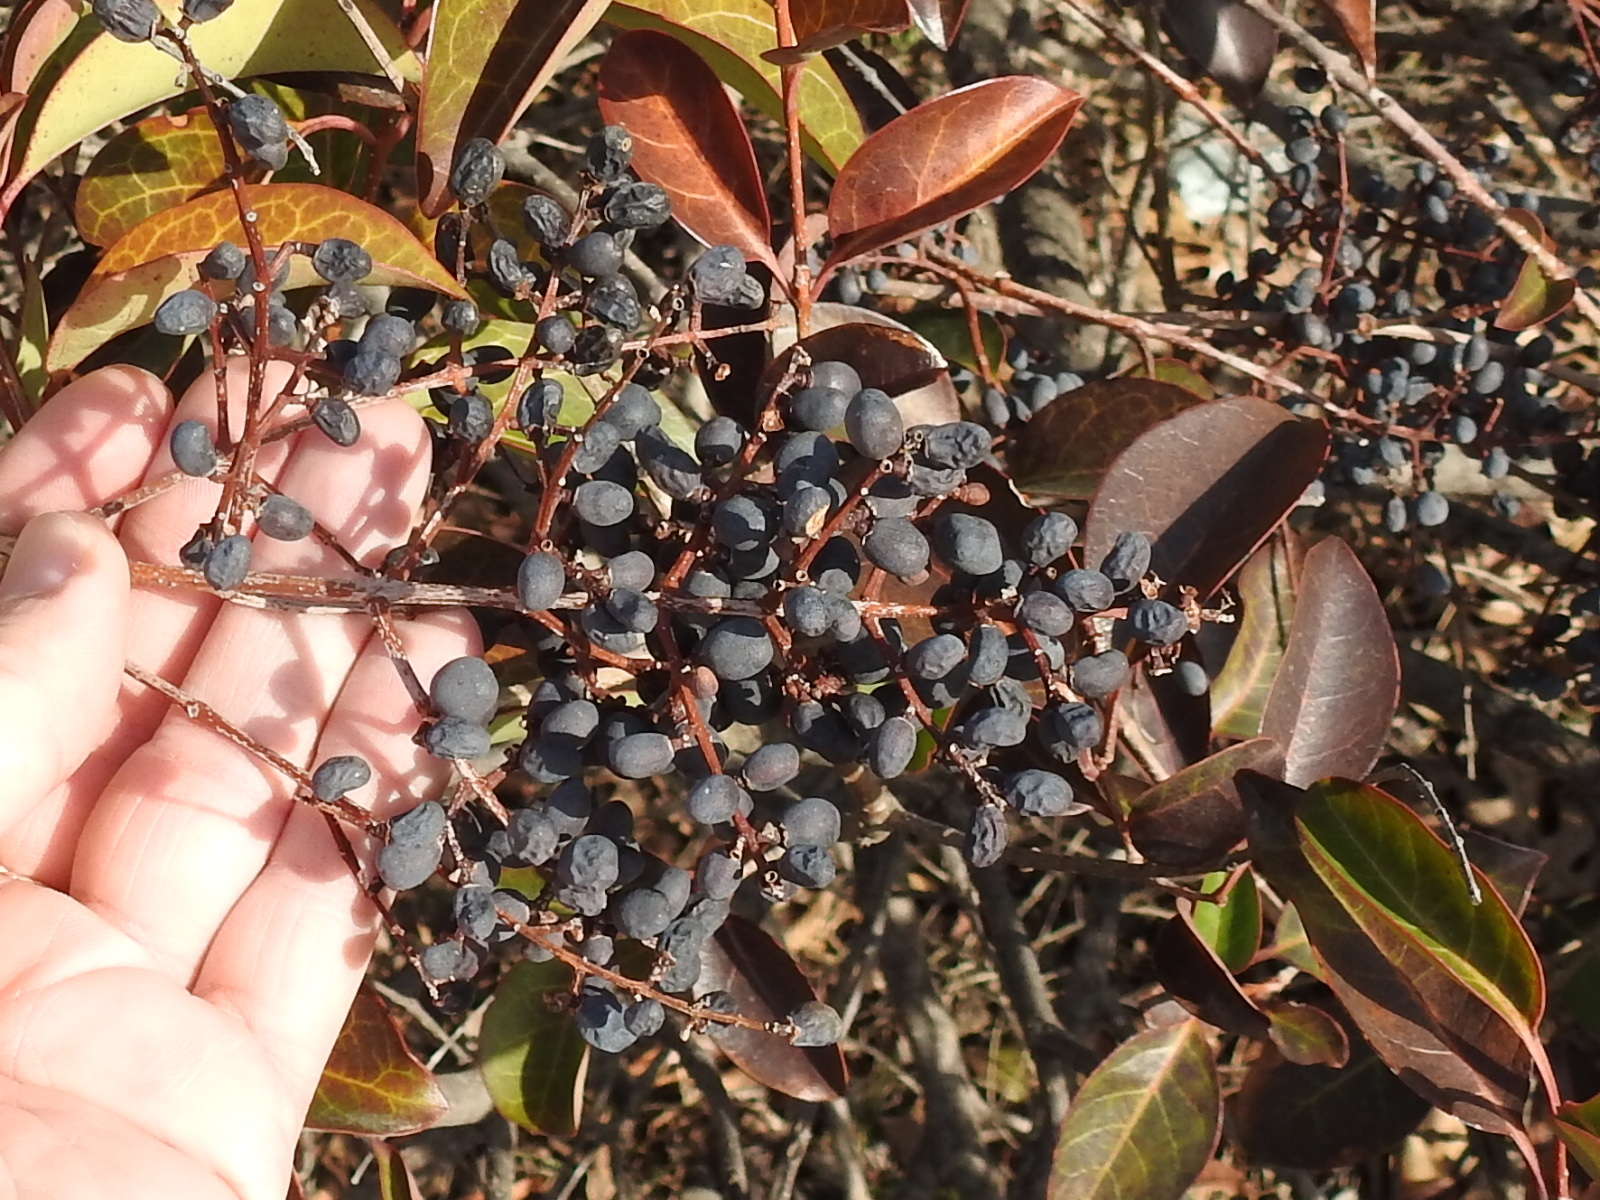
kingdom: Plantae
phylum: Tracheophyta
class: Magnoliopsida
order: Lamiales
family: Oleaceae
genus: Ligustrum
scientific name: Ligustrum lucidum
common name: Glossy privet
